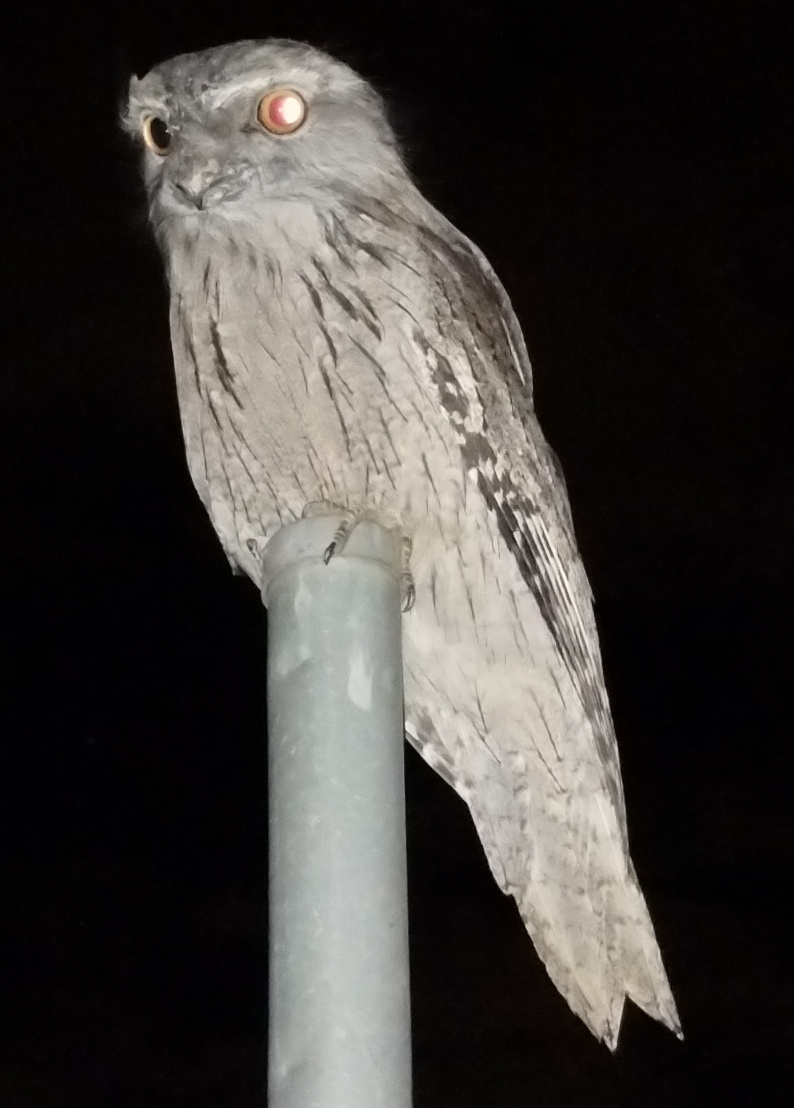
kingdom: Animalia
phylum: Chordata
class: Aves
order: Caprimulgiformes
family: Podargidae
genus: Podargus
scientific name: Podargus strigoides
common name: Tawny frogmouth
